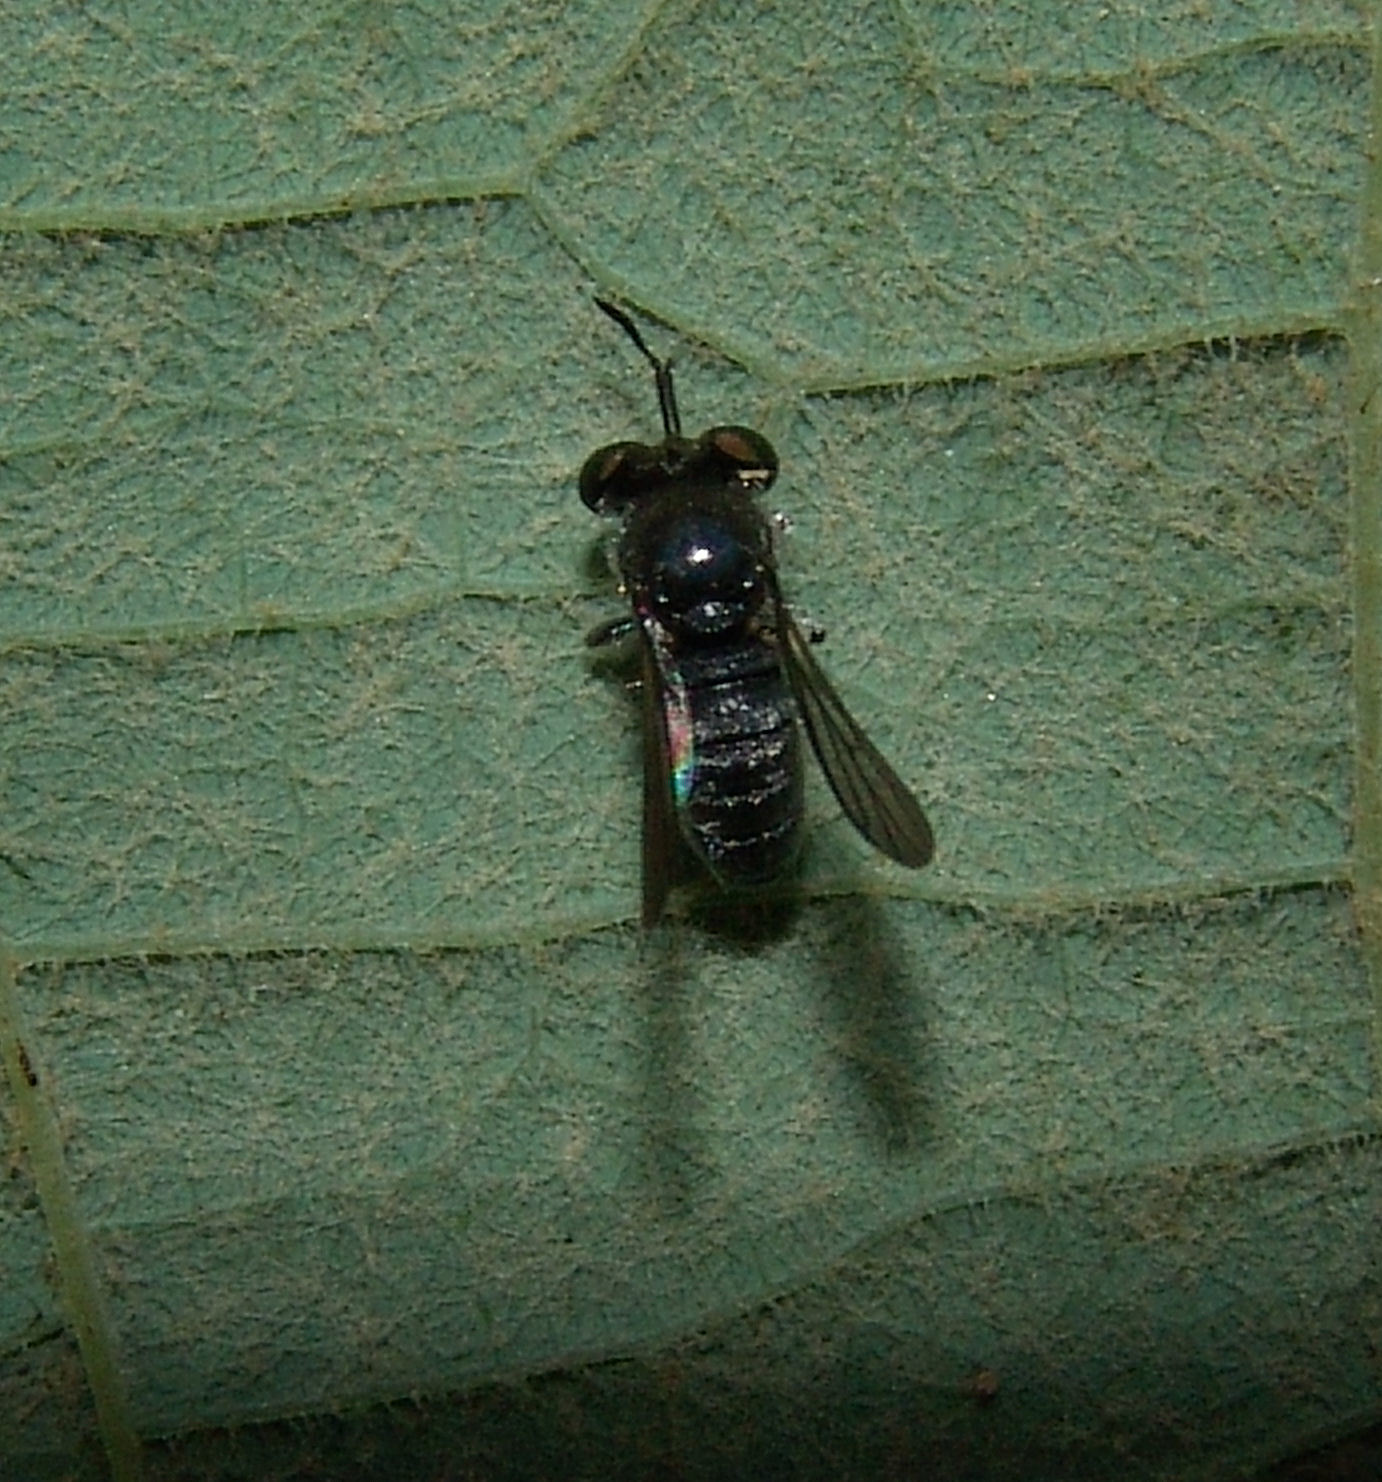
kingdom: Animalia
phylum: Arthropoda
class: Insecta
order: Diptera
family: Asilidae
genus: Cerotainia
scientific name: Cerotainia
